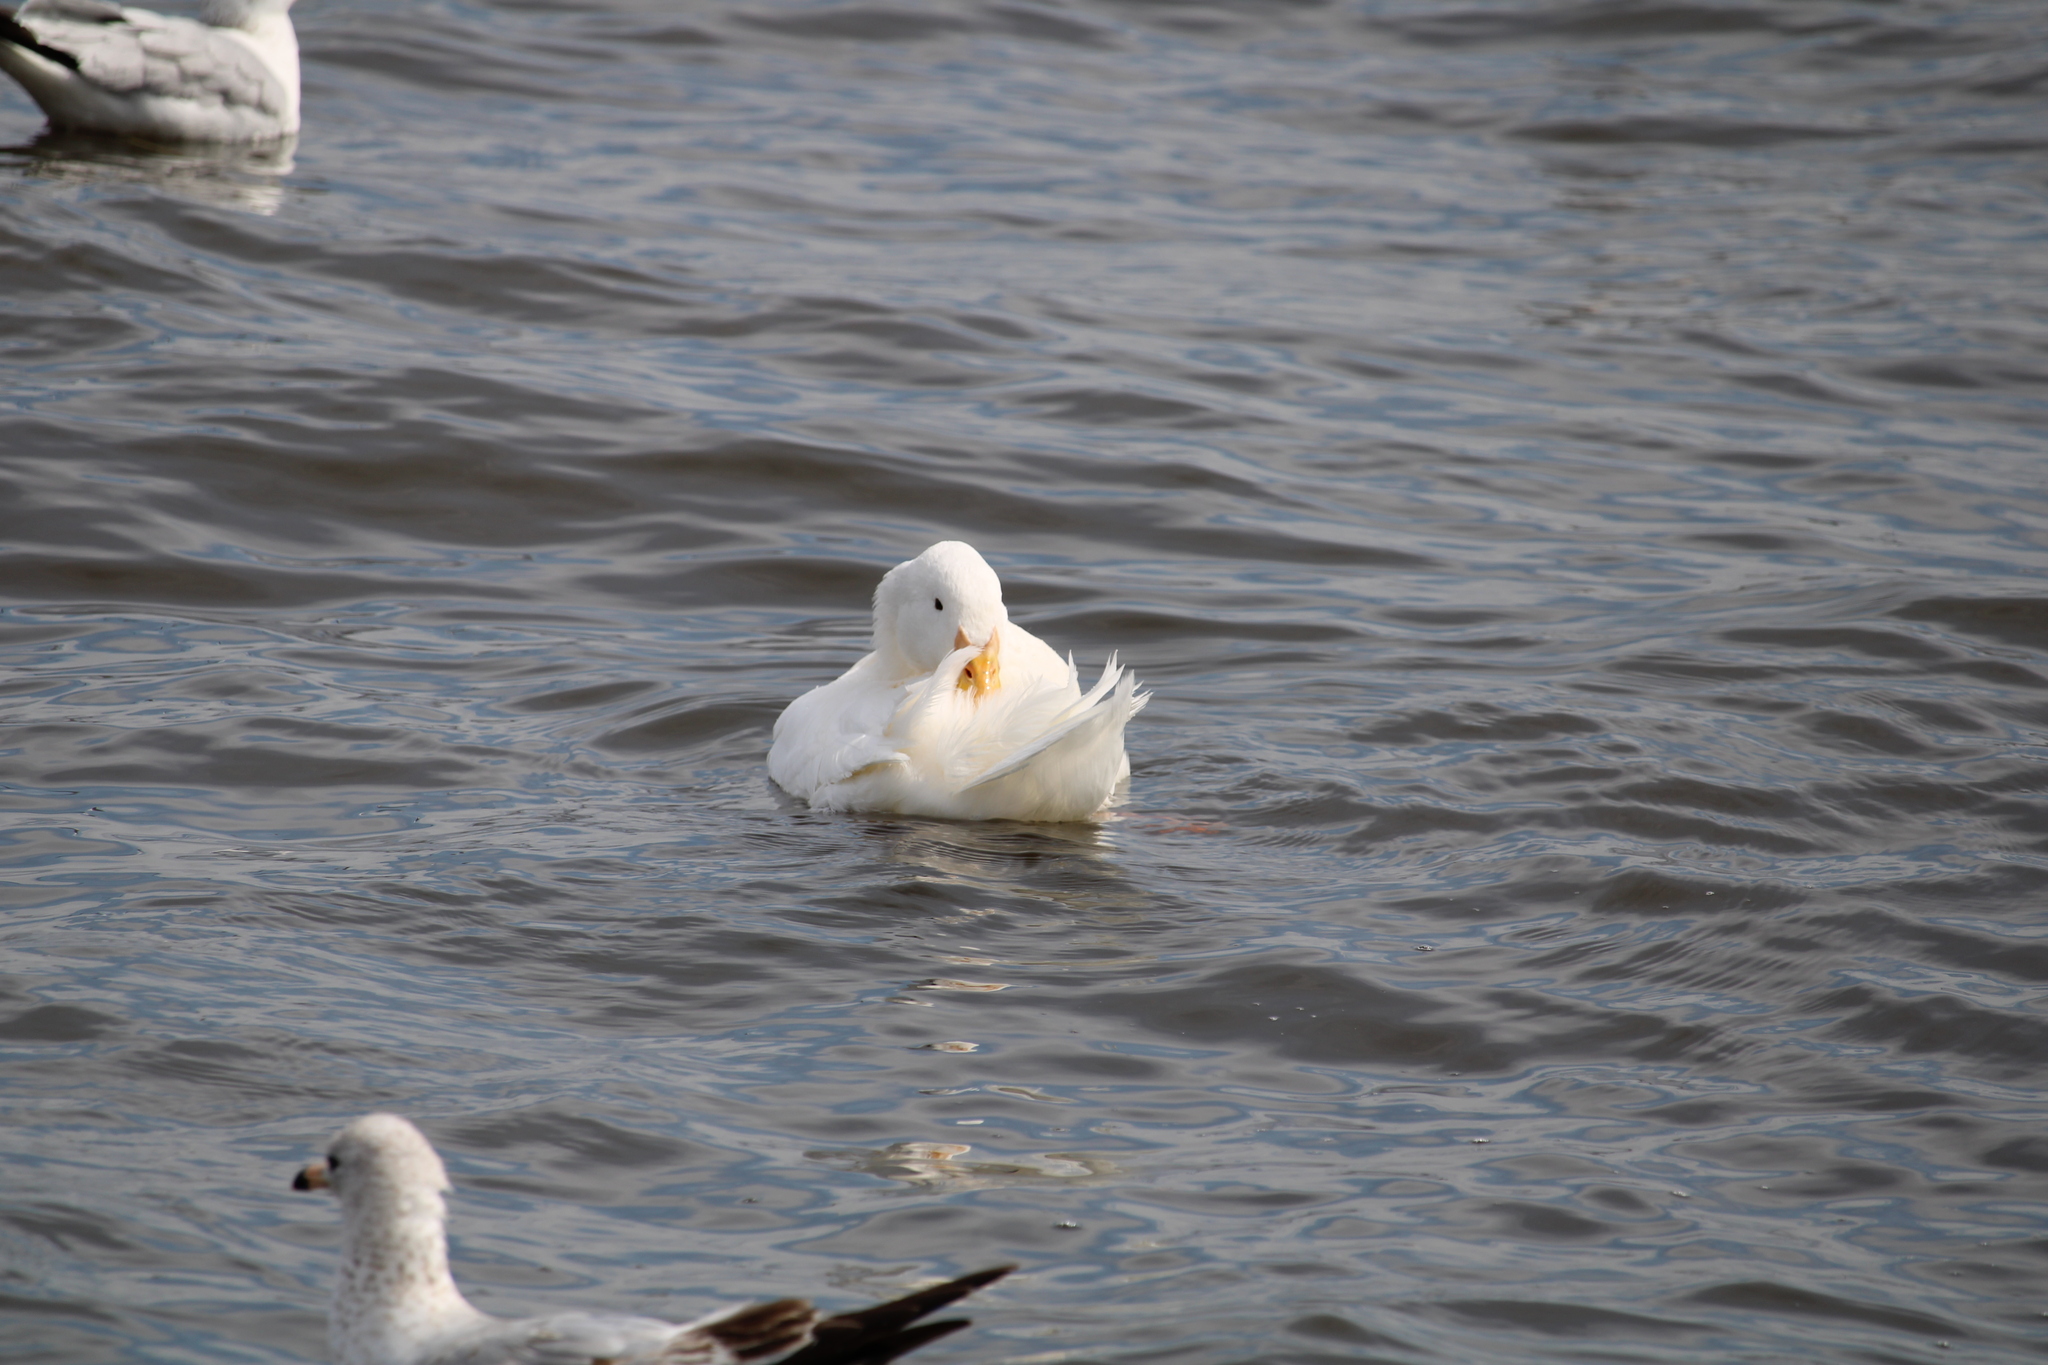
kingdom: Animalia
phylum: Chordata
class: Aves
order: Anseriformes
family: Anatidae
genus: Anas
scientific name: Anas platyrhynchos
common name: Mallard
